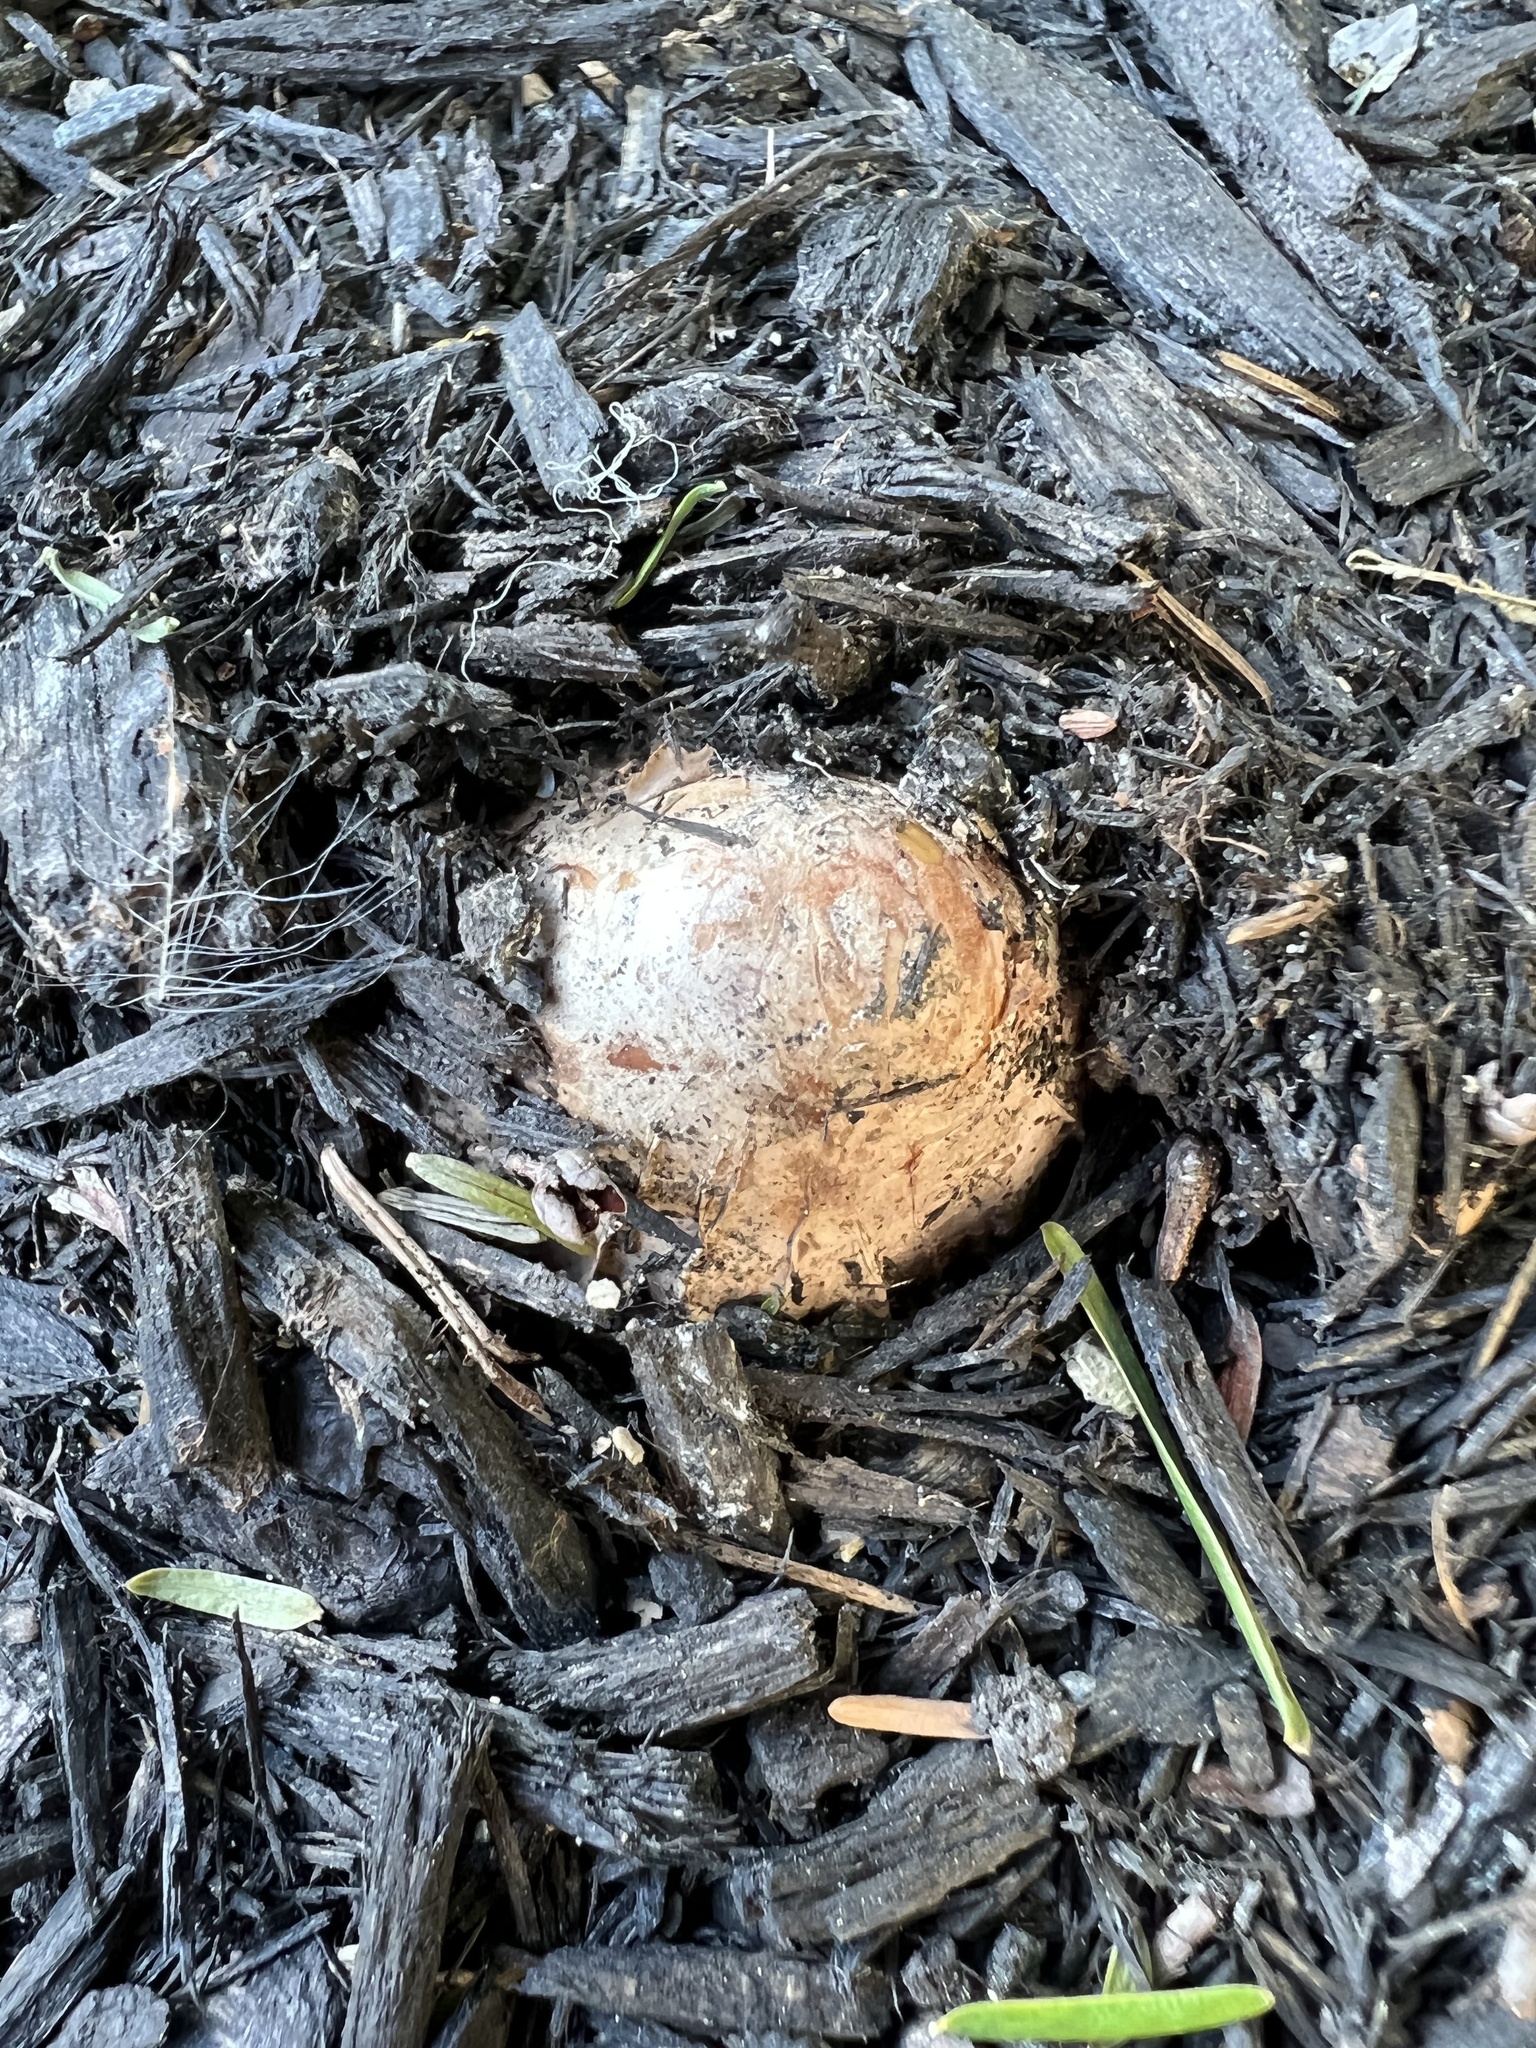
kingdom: Fungi
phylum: Basidiomycota
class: Agaricomycetes
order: Phallales
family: Phallaceae
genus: Phallus
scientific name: Phallus ravenelii
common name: Ravenel's stinkhorn
